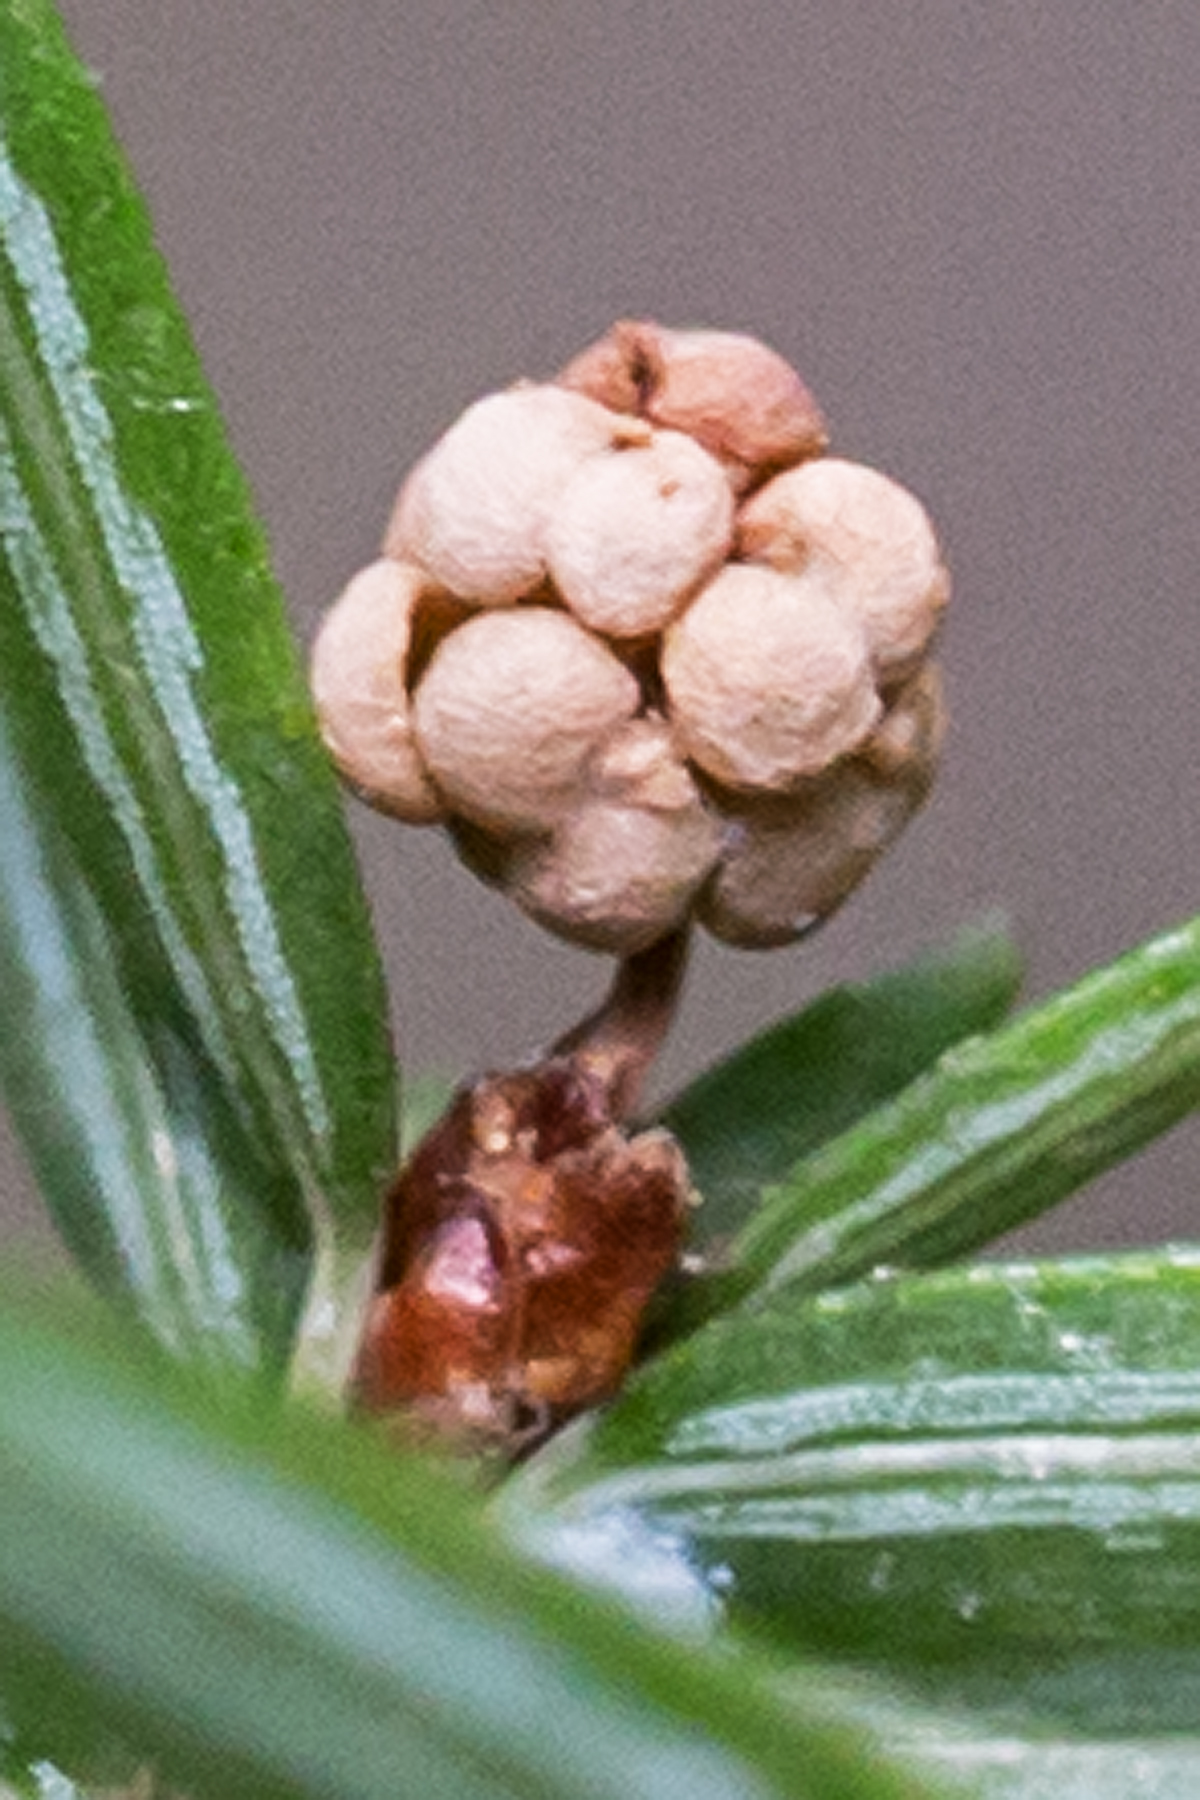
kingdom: Plantae
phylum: Tracheophyta
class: Pinopsida
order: Pinales
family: Pinaceae
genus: Tsuga
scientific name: Tsuga canadensis
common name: Eastern hemlock
